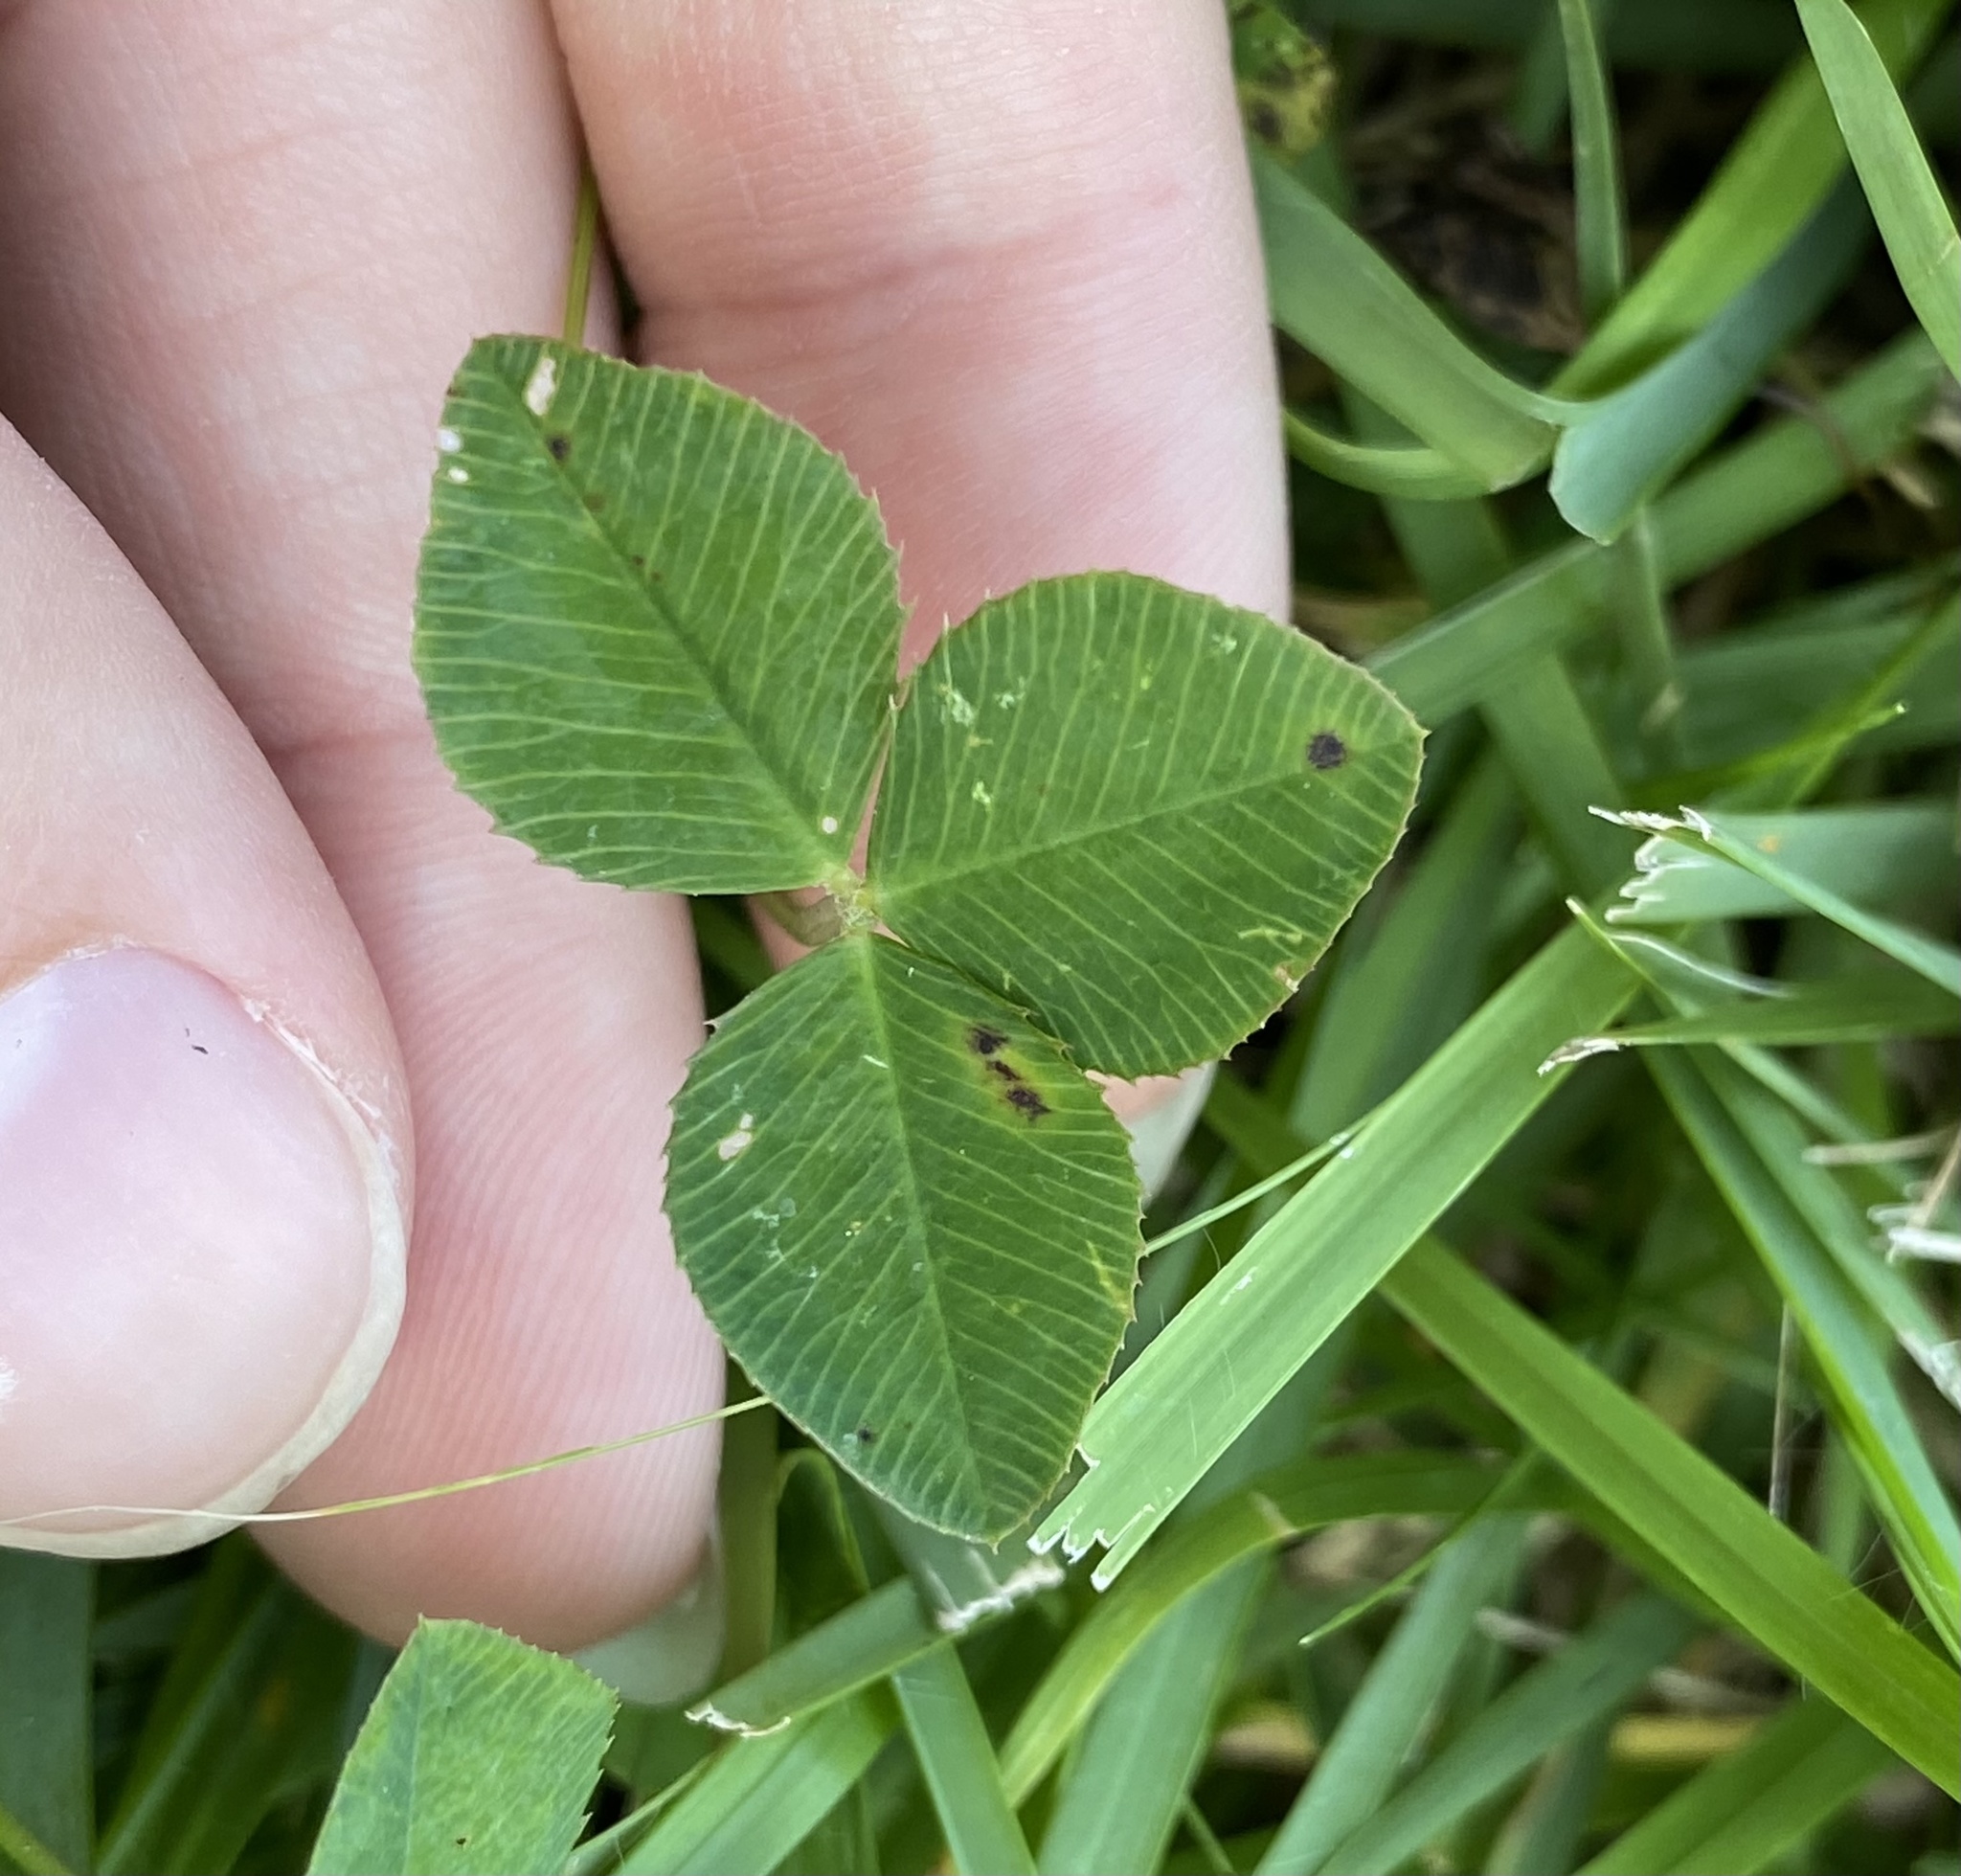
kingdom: Plantae
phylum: Tracheophyta
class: Magnoliopsida
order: Fabales
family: Fabaceae
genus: Trifolium
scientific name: Trifolium repens
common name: White clover
